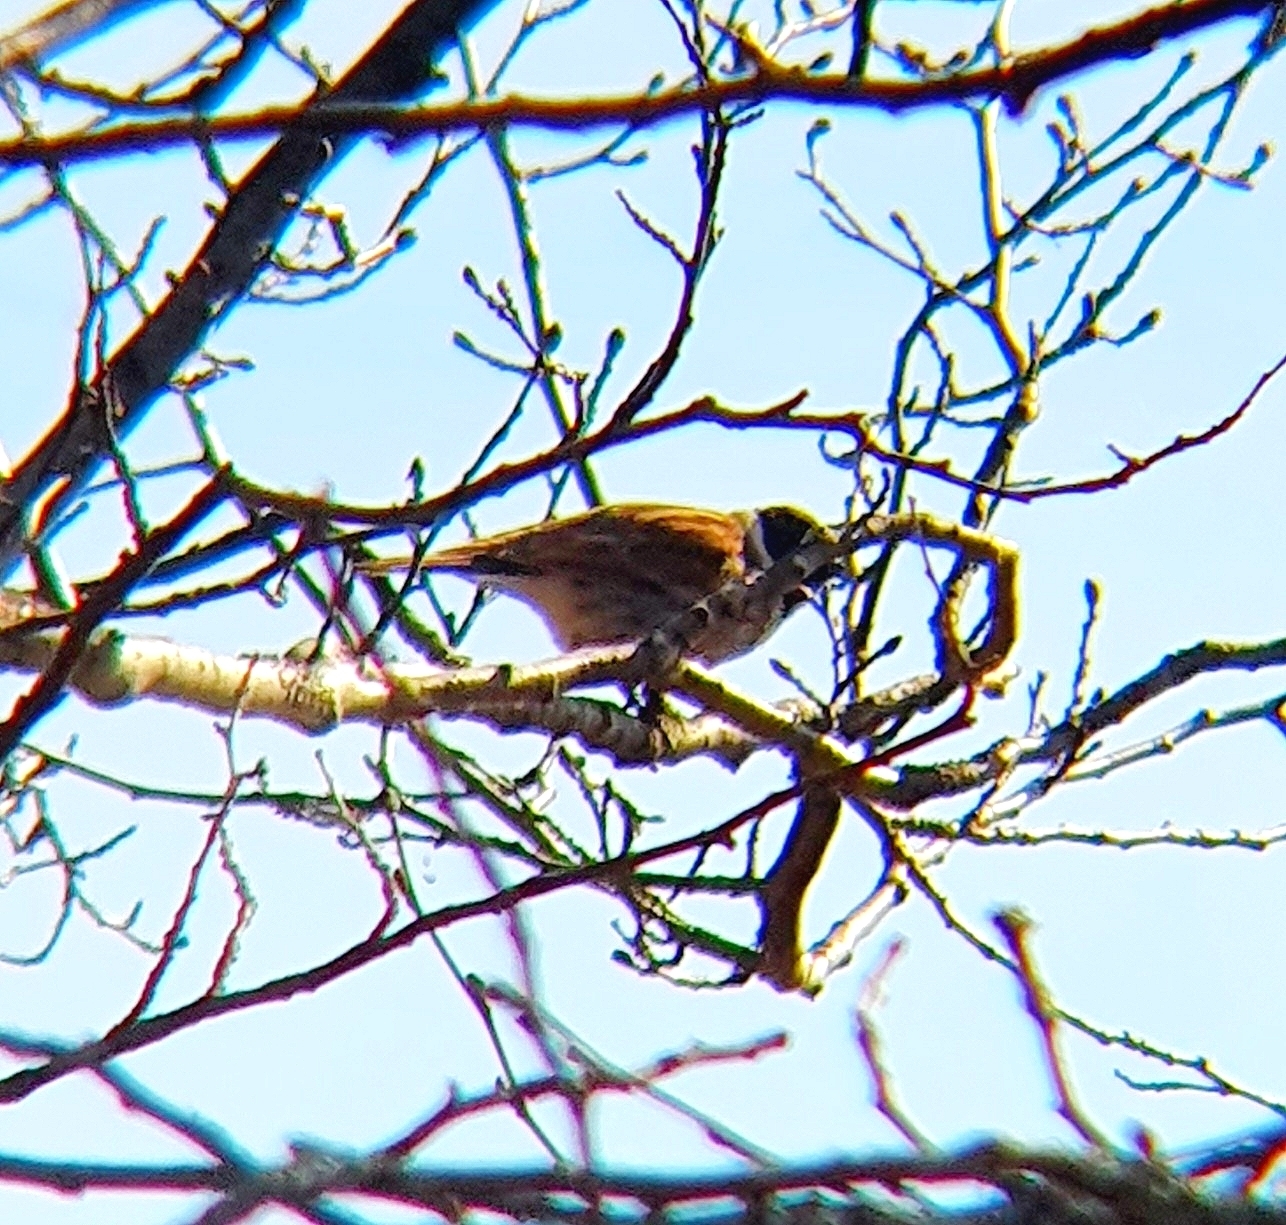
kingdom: Animalia
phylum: Chordata
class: Aves
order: Passeriformes
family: Emberizidae
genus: Emberiza
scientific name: Emberiza schoeniclus
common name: Reed bunting
